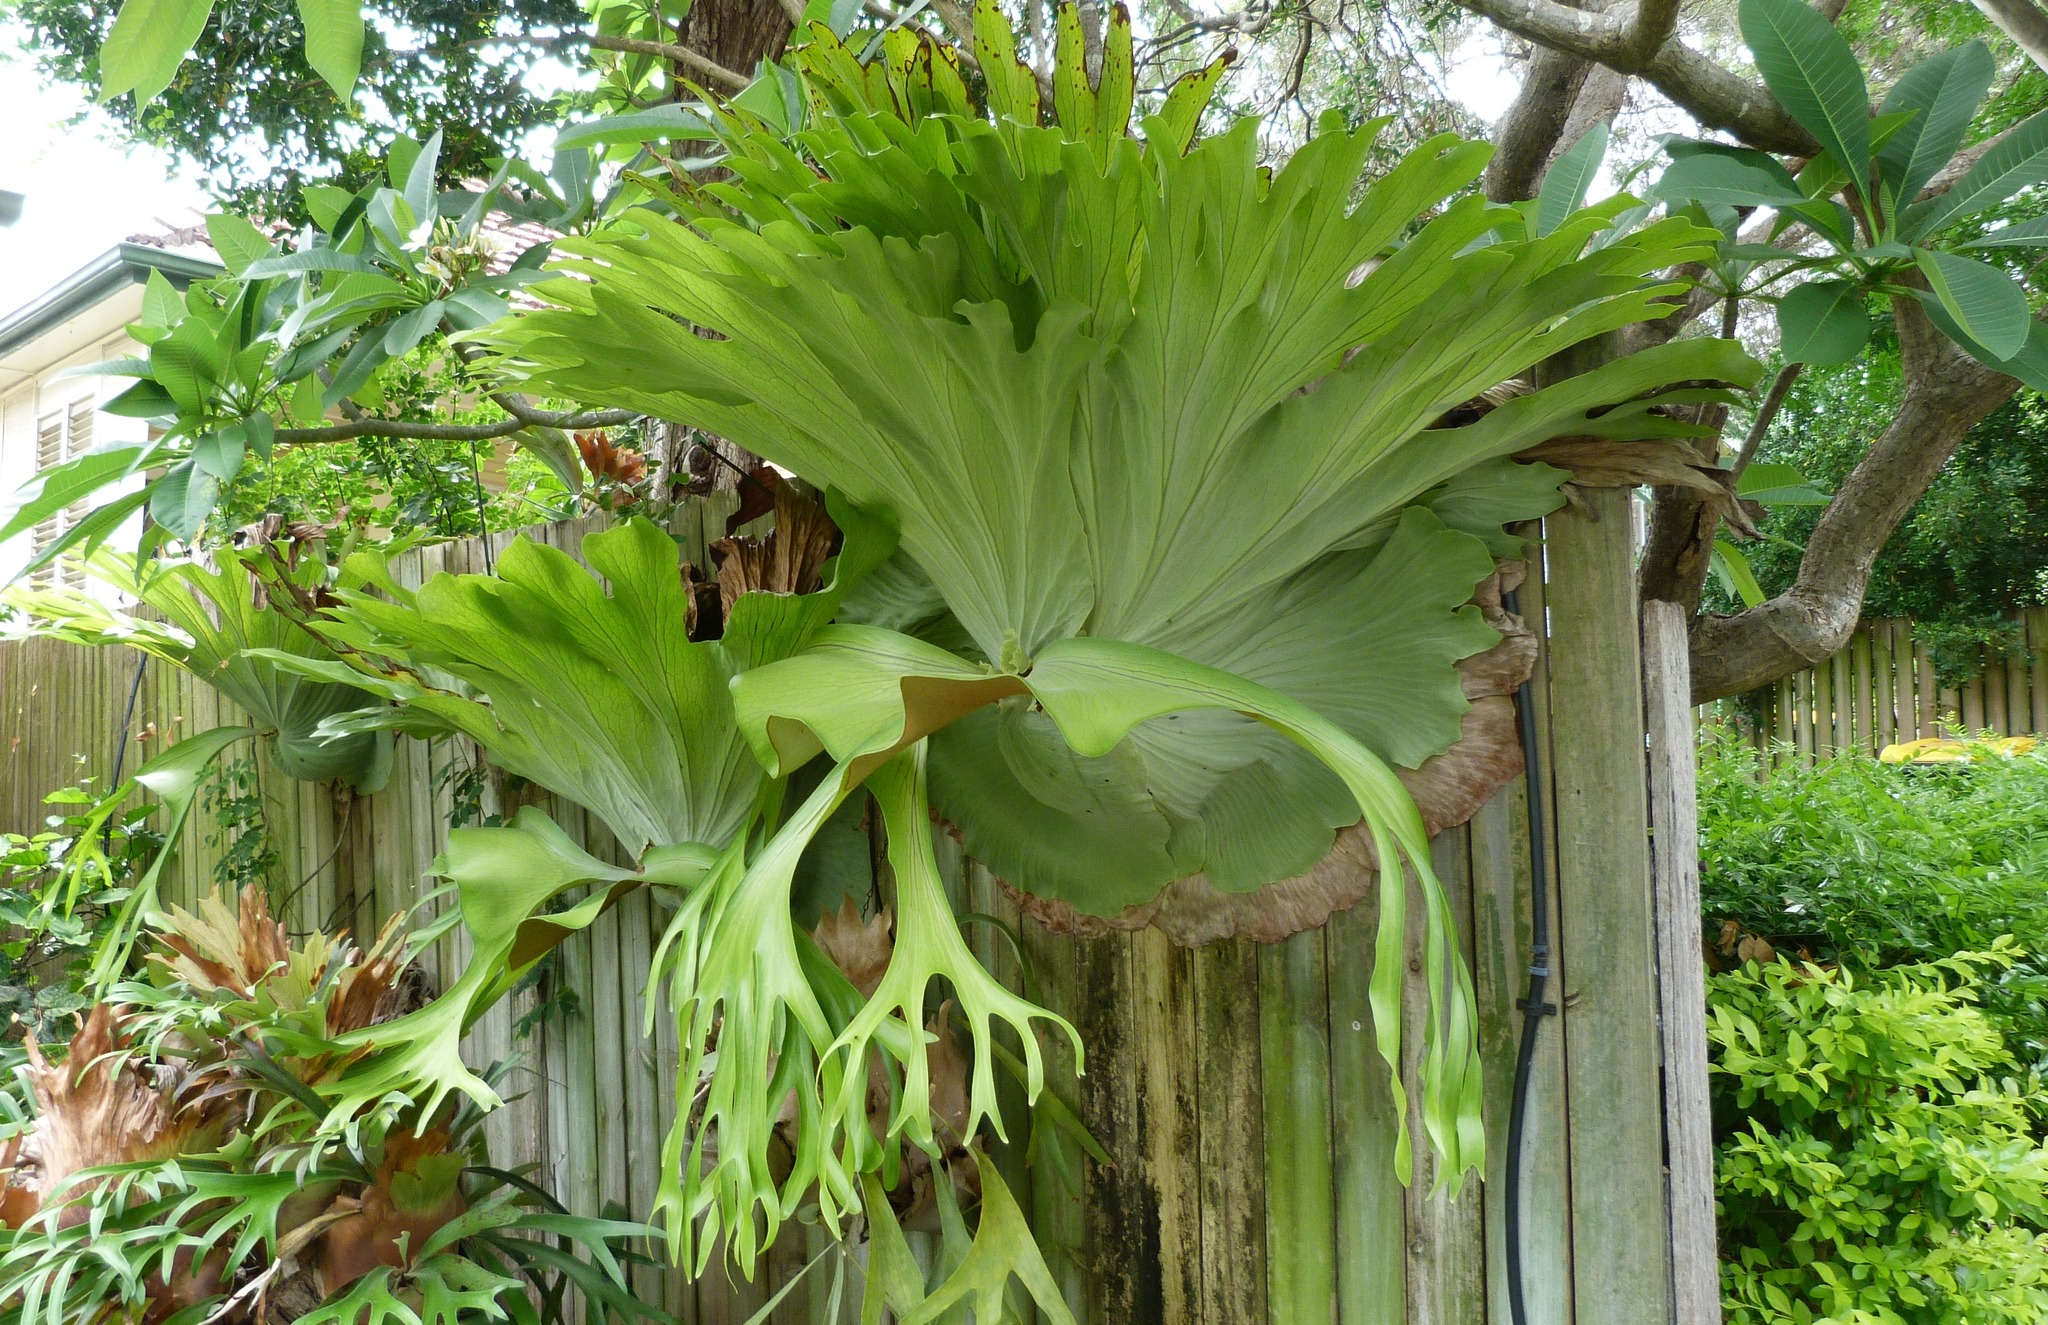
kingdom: Plantae
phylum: Tracheophyta
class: Polypodiopsida
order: Polypodiales
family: Polypodiaceae
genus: Platycerium
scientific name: Platycerium superbum
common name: Staghorn fern
